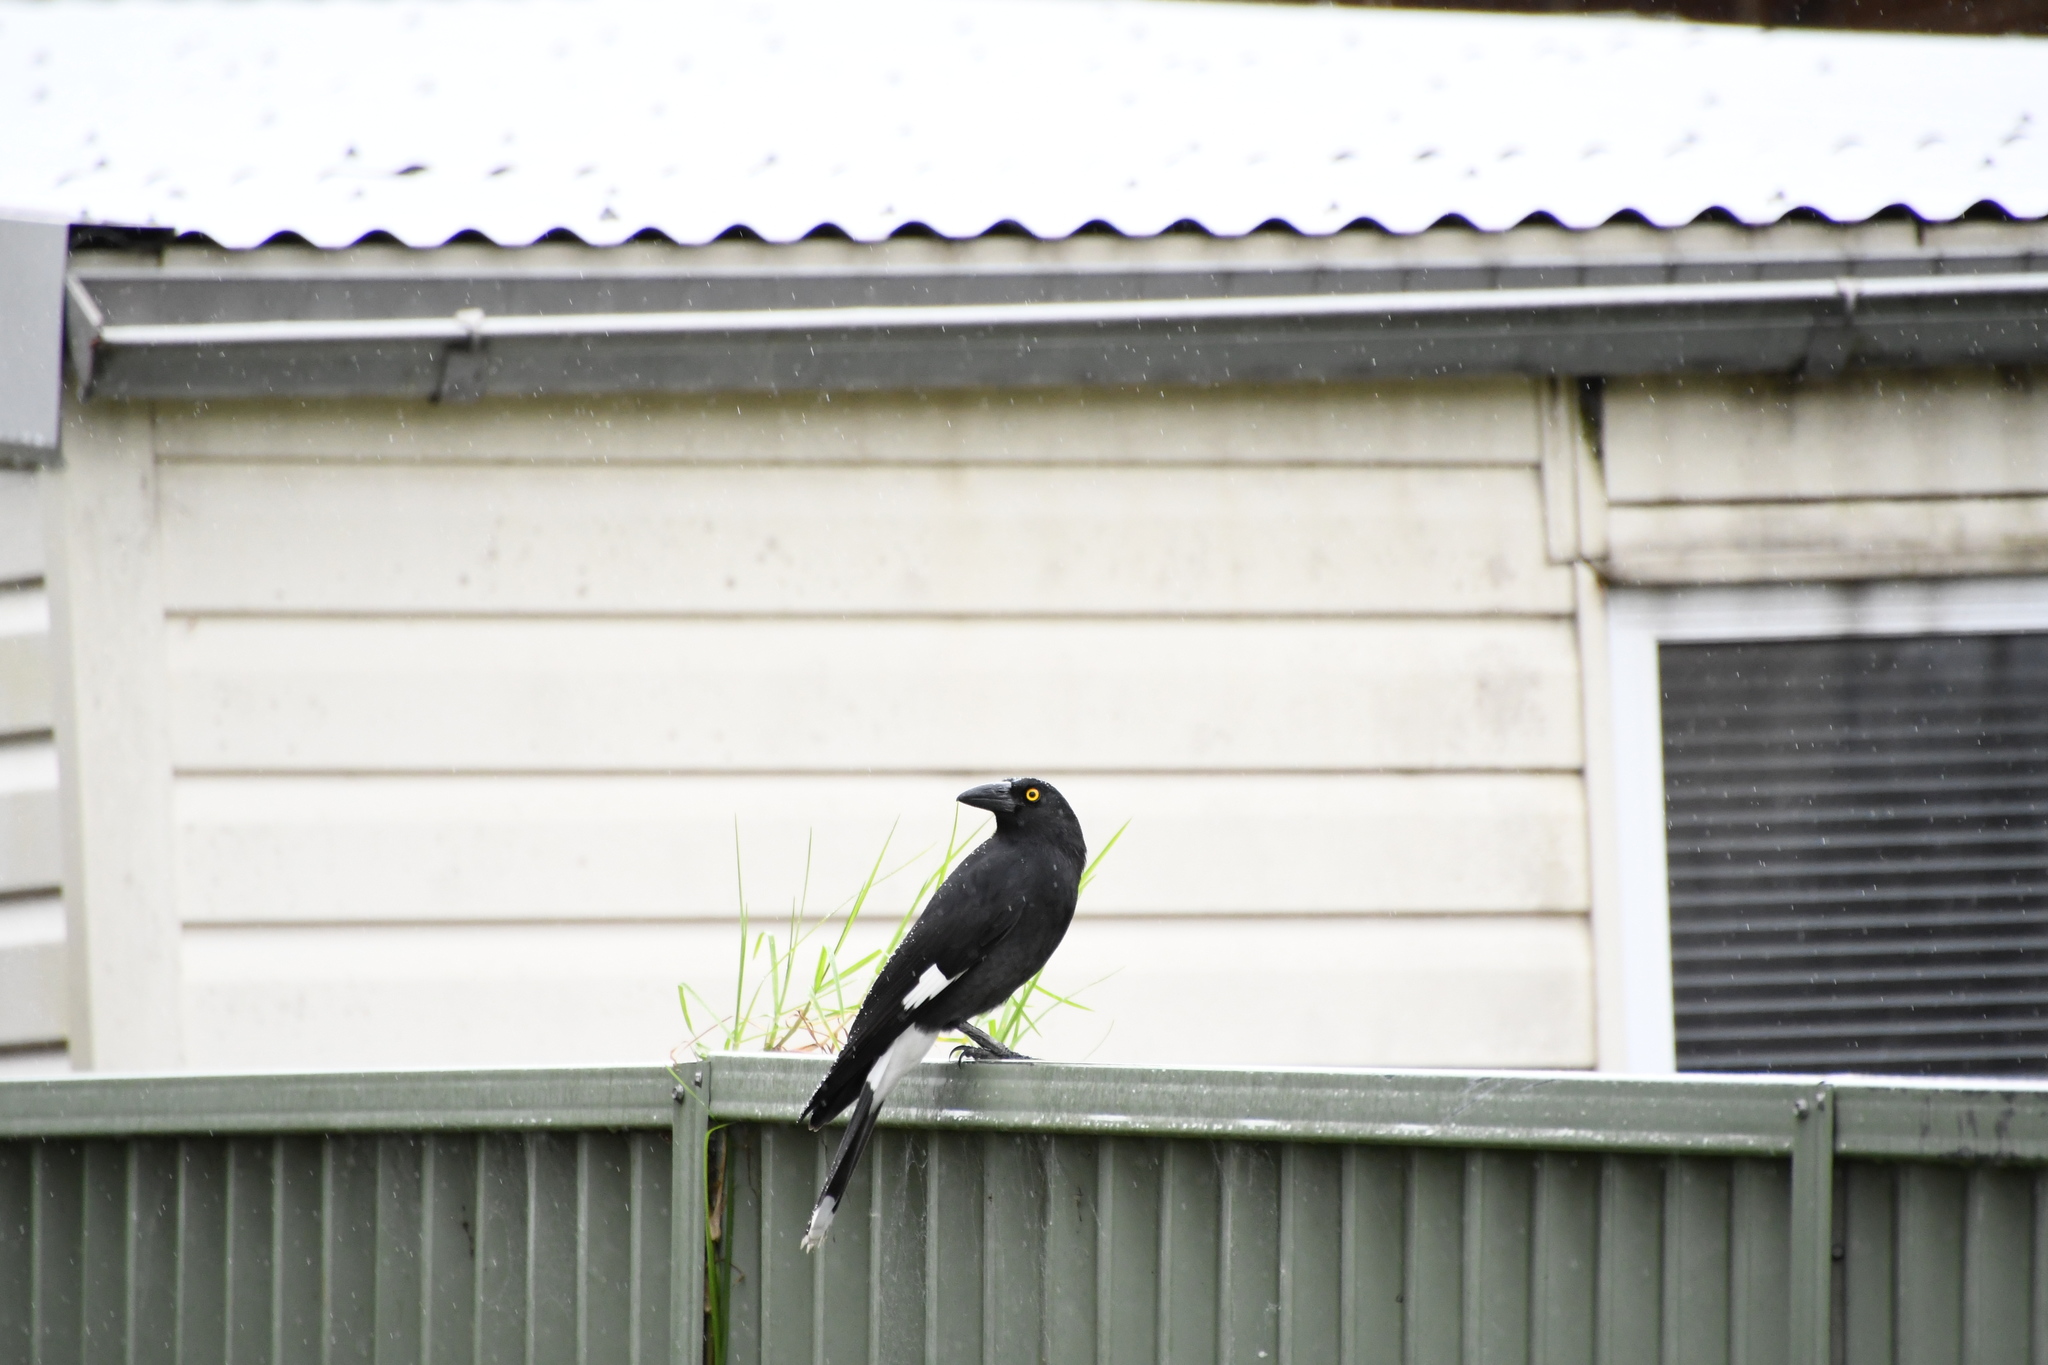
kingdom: Animalia
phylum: Chordata
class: Aves
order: Passeriformes
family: Cracticidae
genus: Strepera
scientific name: Strepera graculina
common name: Pied currawong
